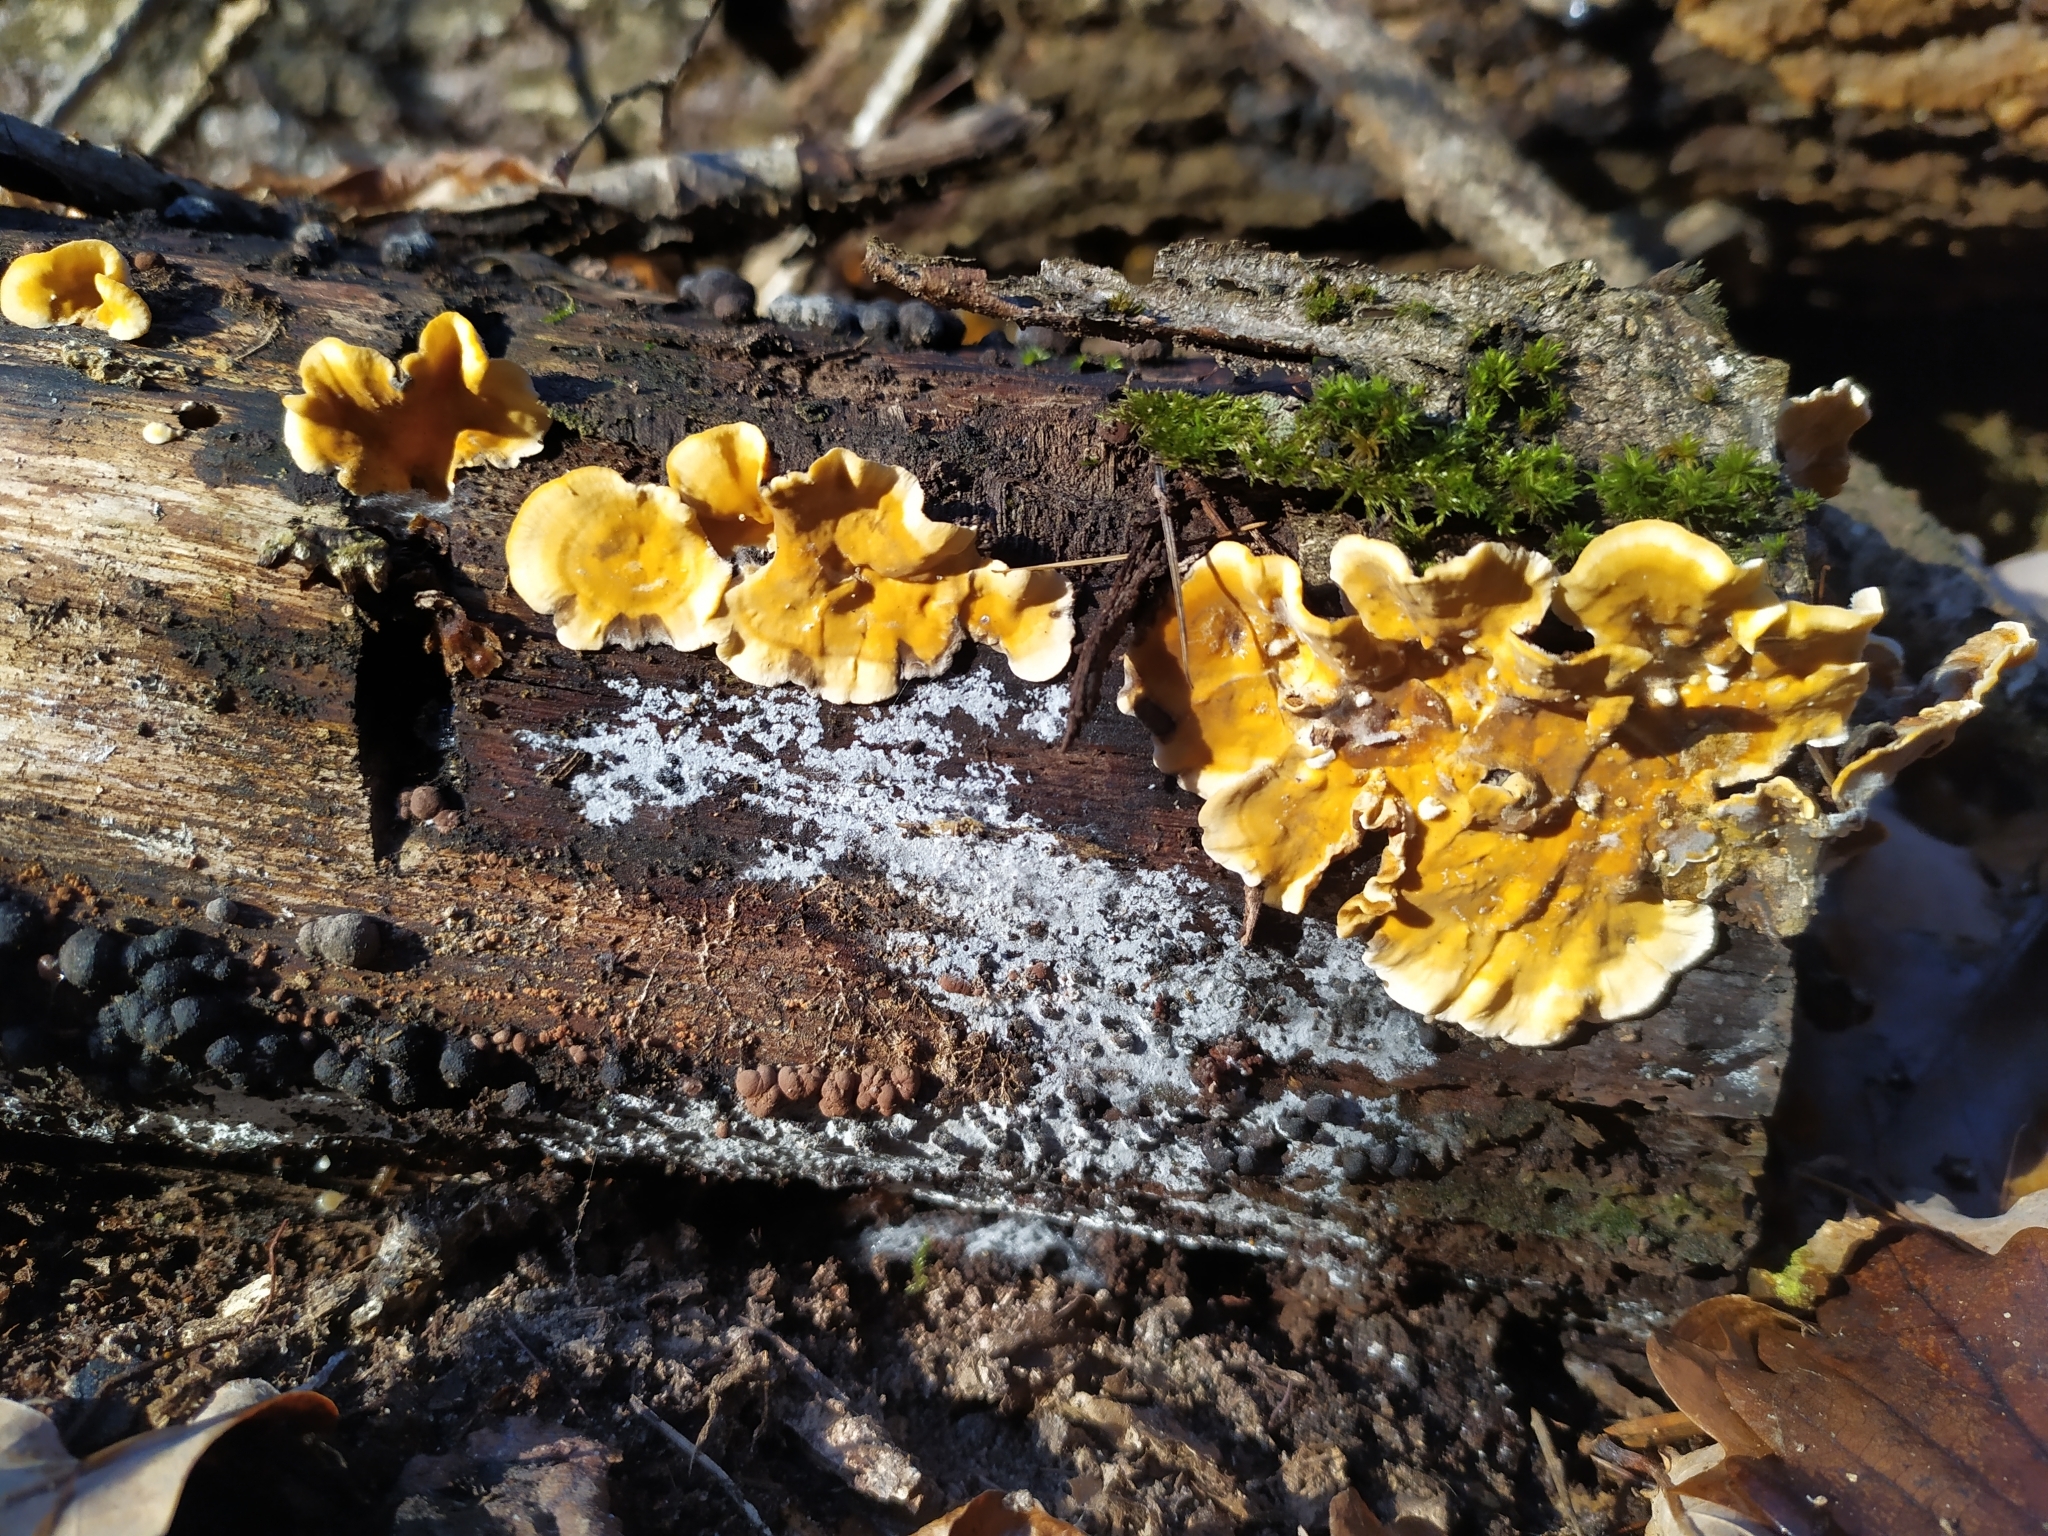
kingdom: Fungi
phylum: Basidiomycota
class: Agaricomycetes
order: Russulales
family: Stereaceae
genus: Stereum
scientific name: Stereum hirsutum
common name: Hairy curtain crust
